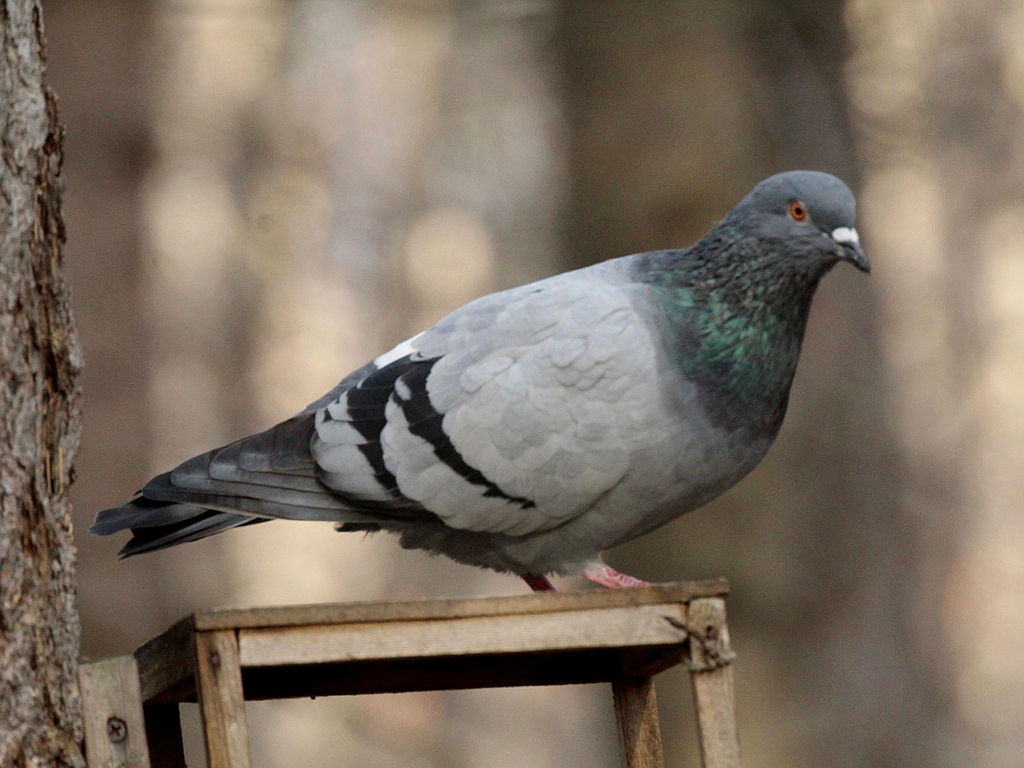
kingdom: Animalia
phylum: Chordata
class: Aves
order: Columbiformes
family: Columbidae
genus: Columba
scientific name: Columba livia
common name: Rock pigeon
